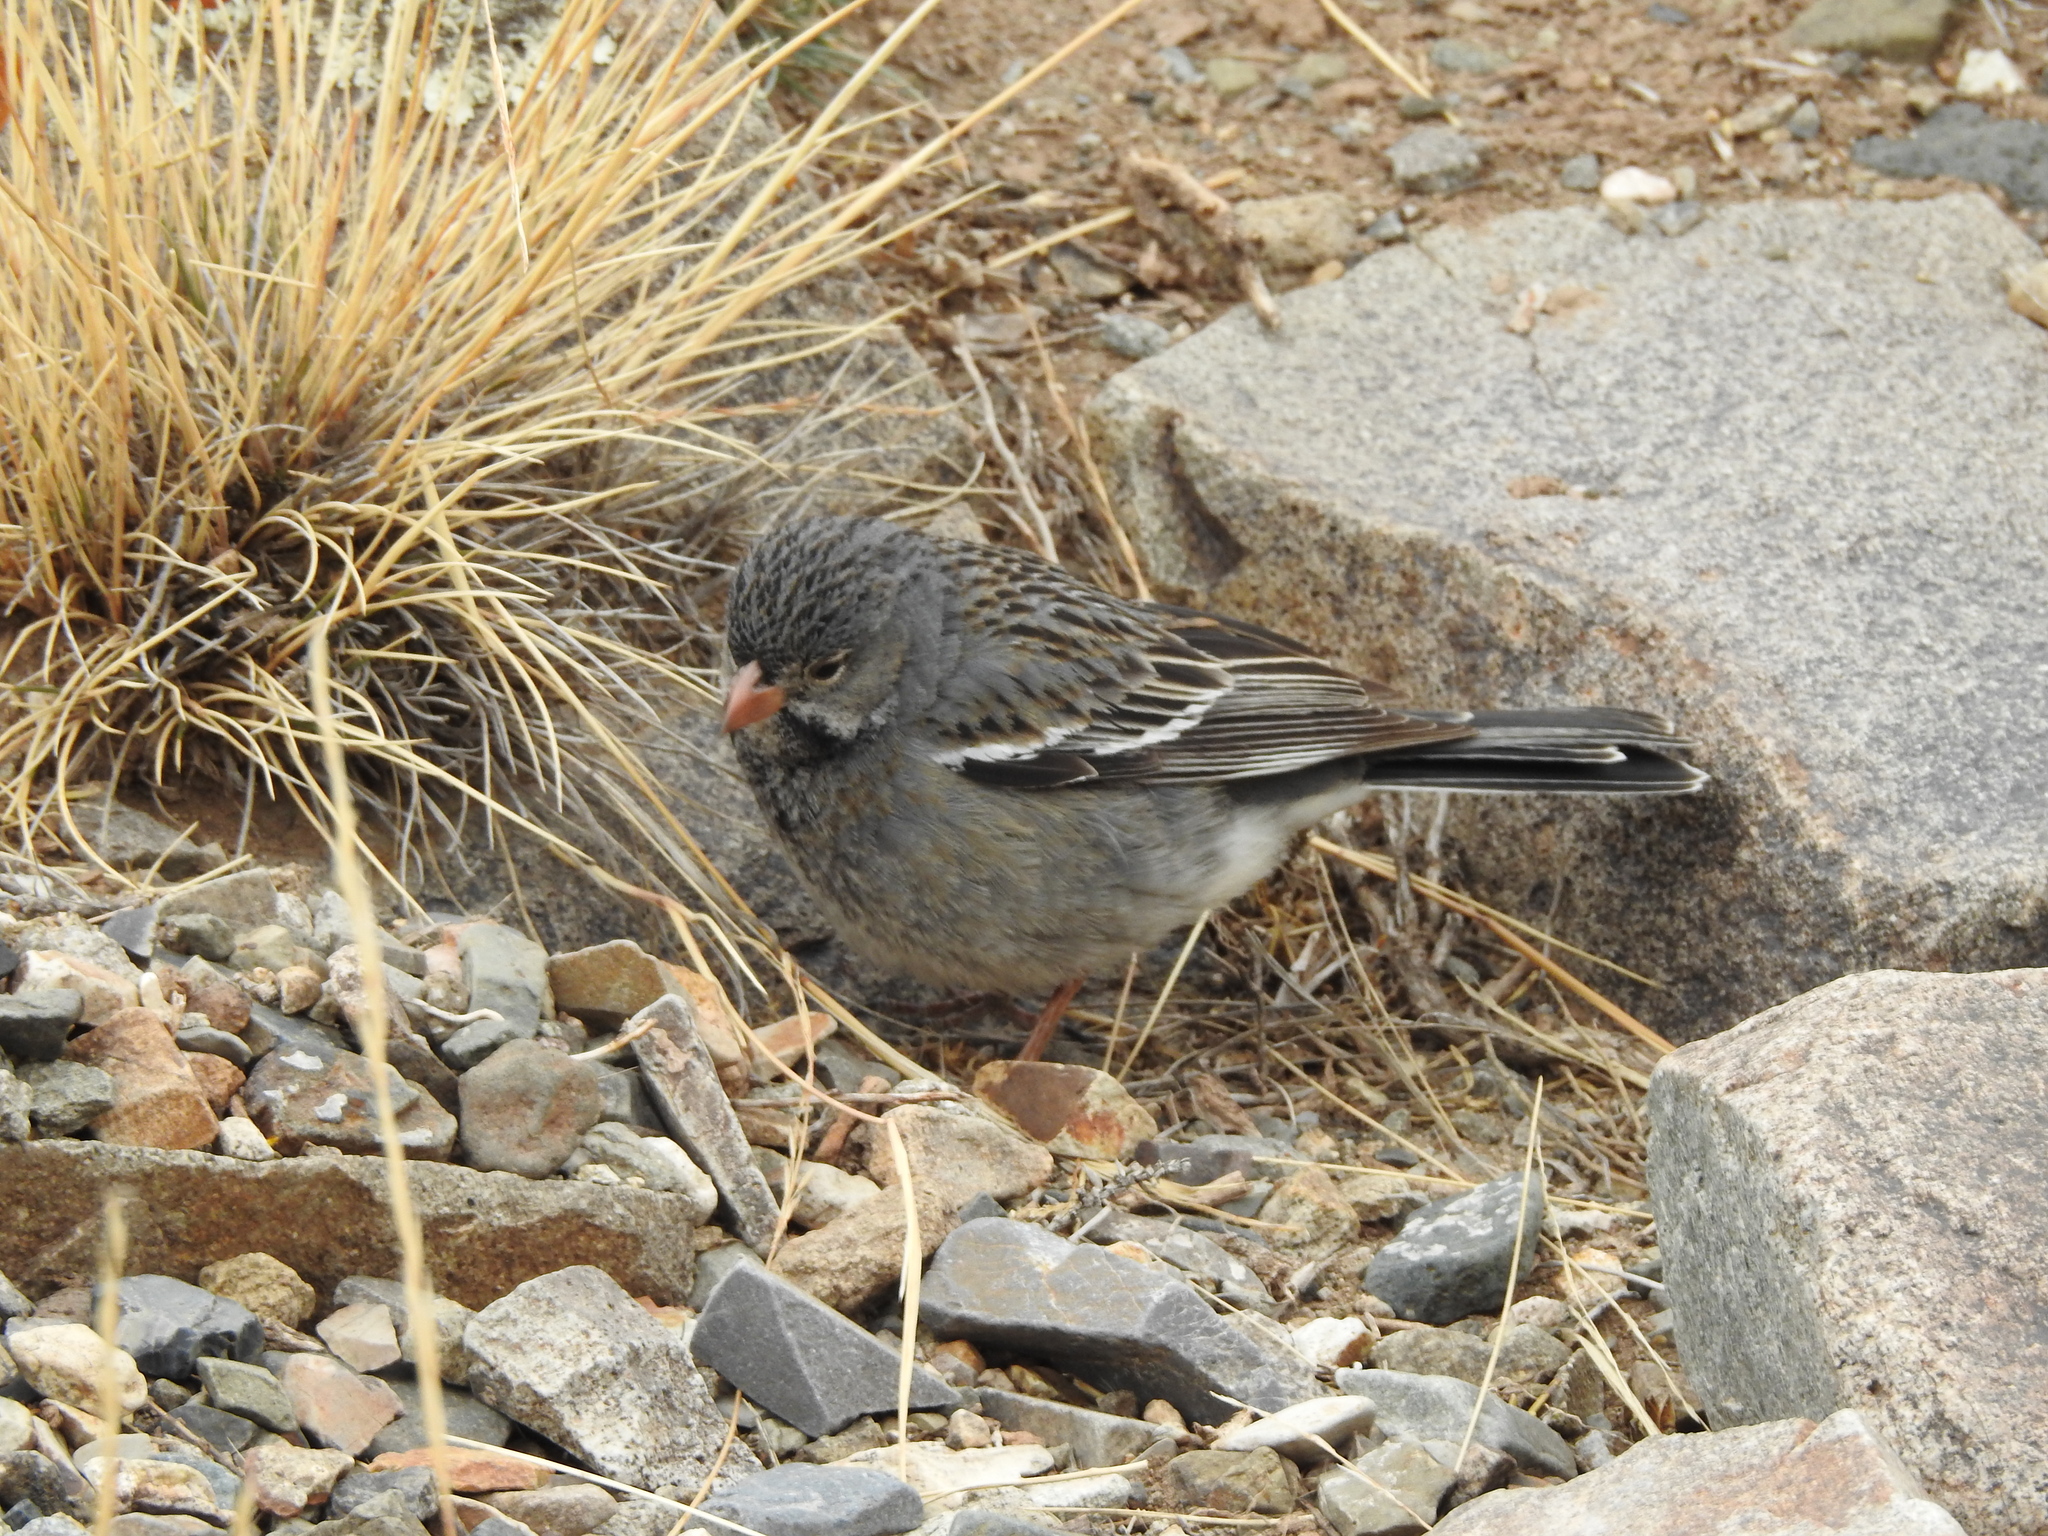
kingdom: Animalia
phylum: Chordata
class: Aves
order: Passeriformes
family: Thraupidae
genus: Rhopospina
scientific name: Rhopospina fruticeti
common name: Mourning sierra finch
